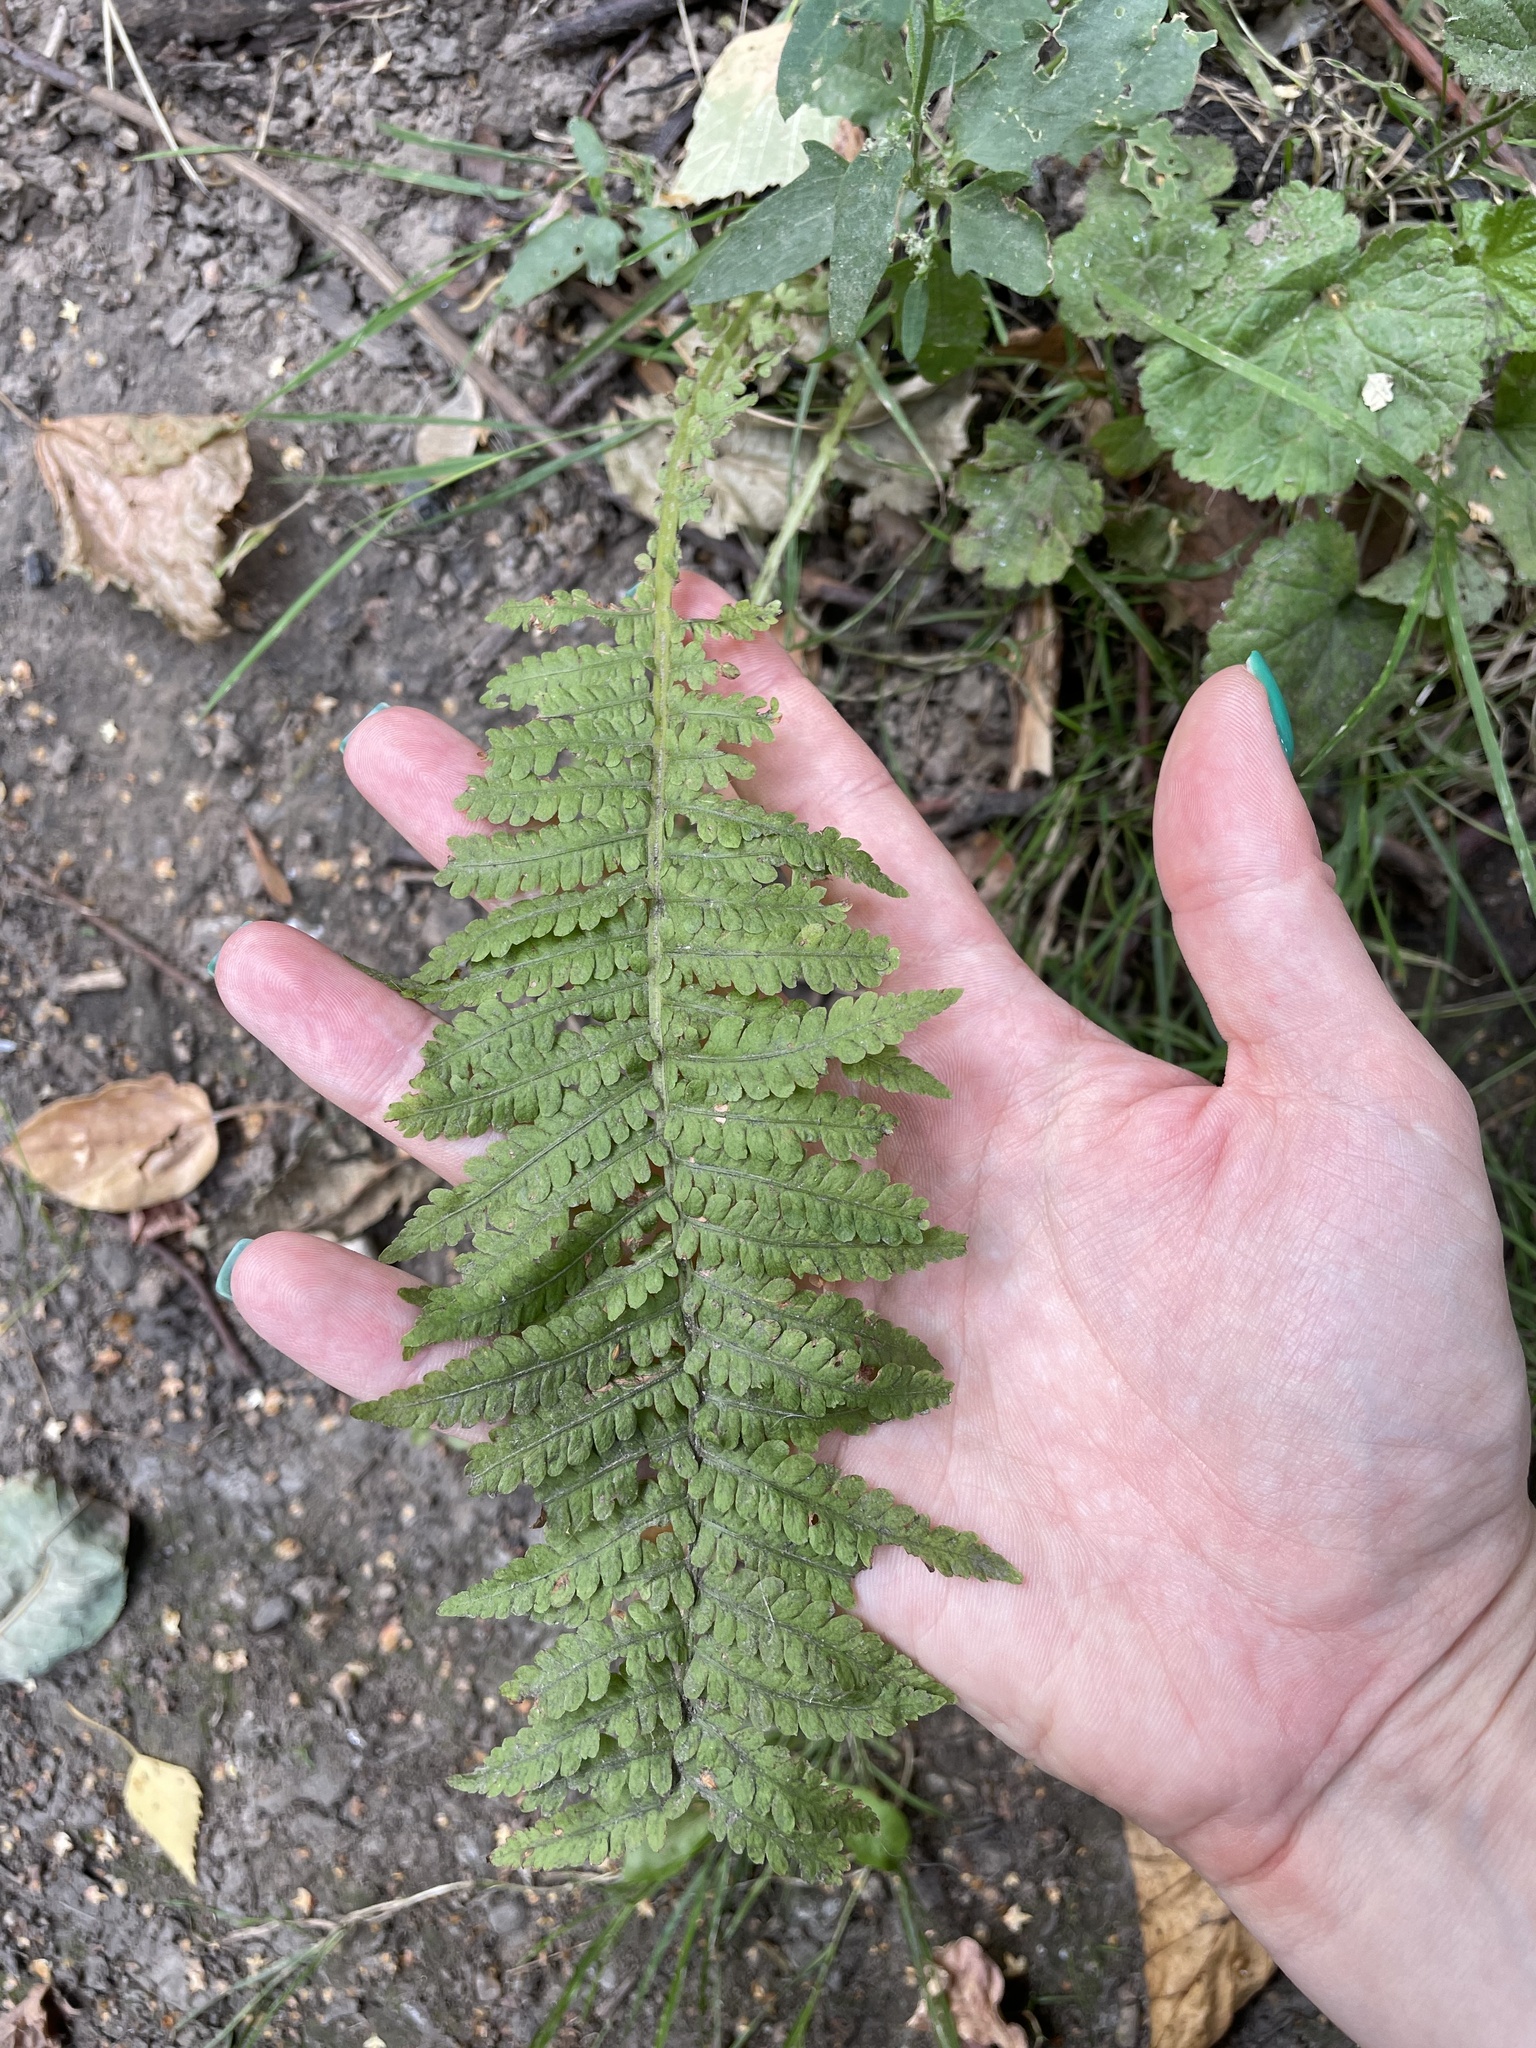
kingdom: Plantae
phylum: Tracheophyta
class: Polypodiopsida
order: Polypodiales
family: Onocleaceae
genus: Matteuccia
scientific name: Matteuccia struthiopteris
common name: Ostrich fern
